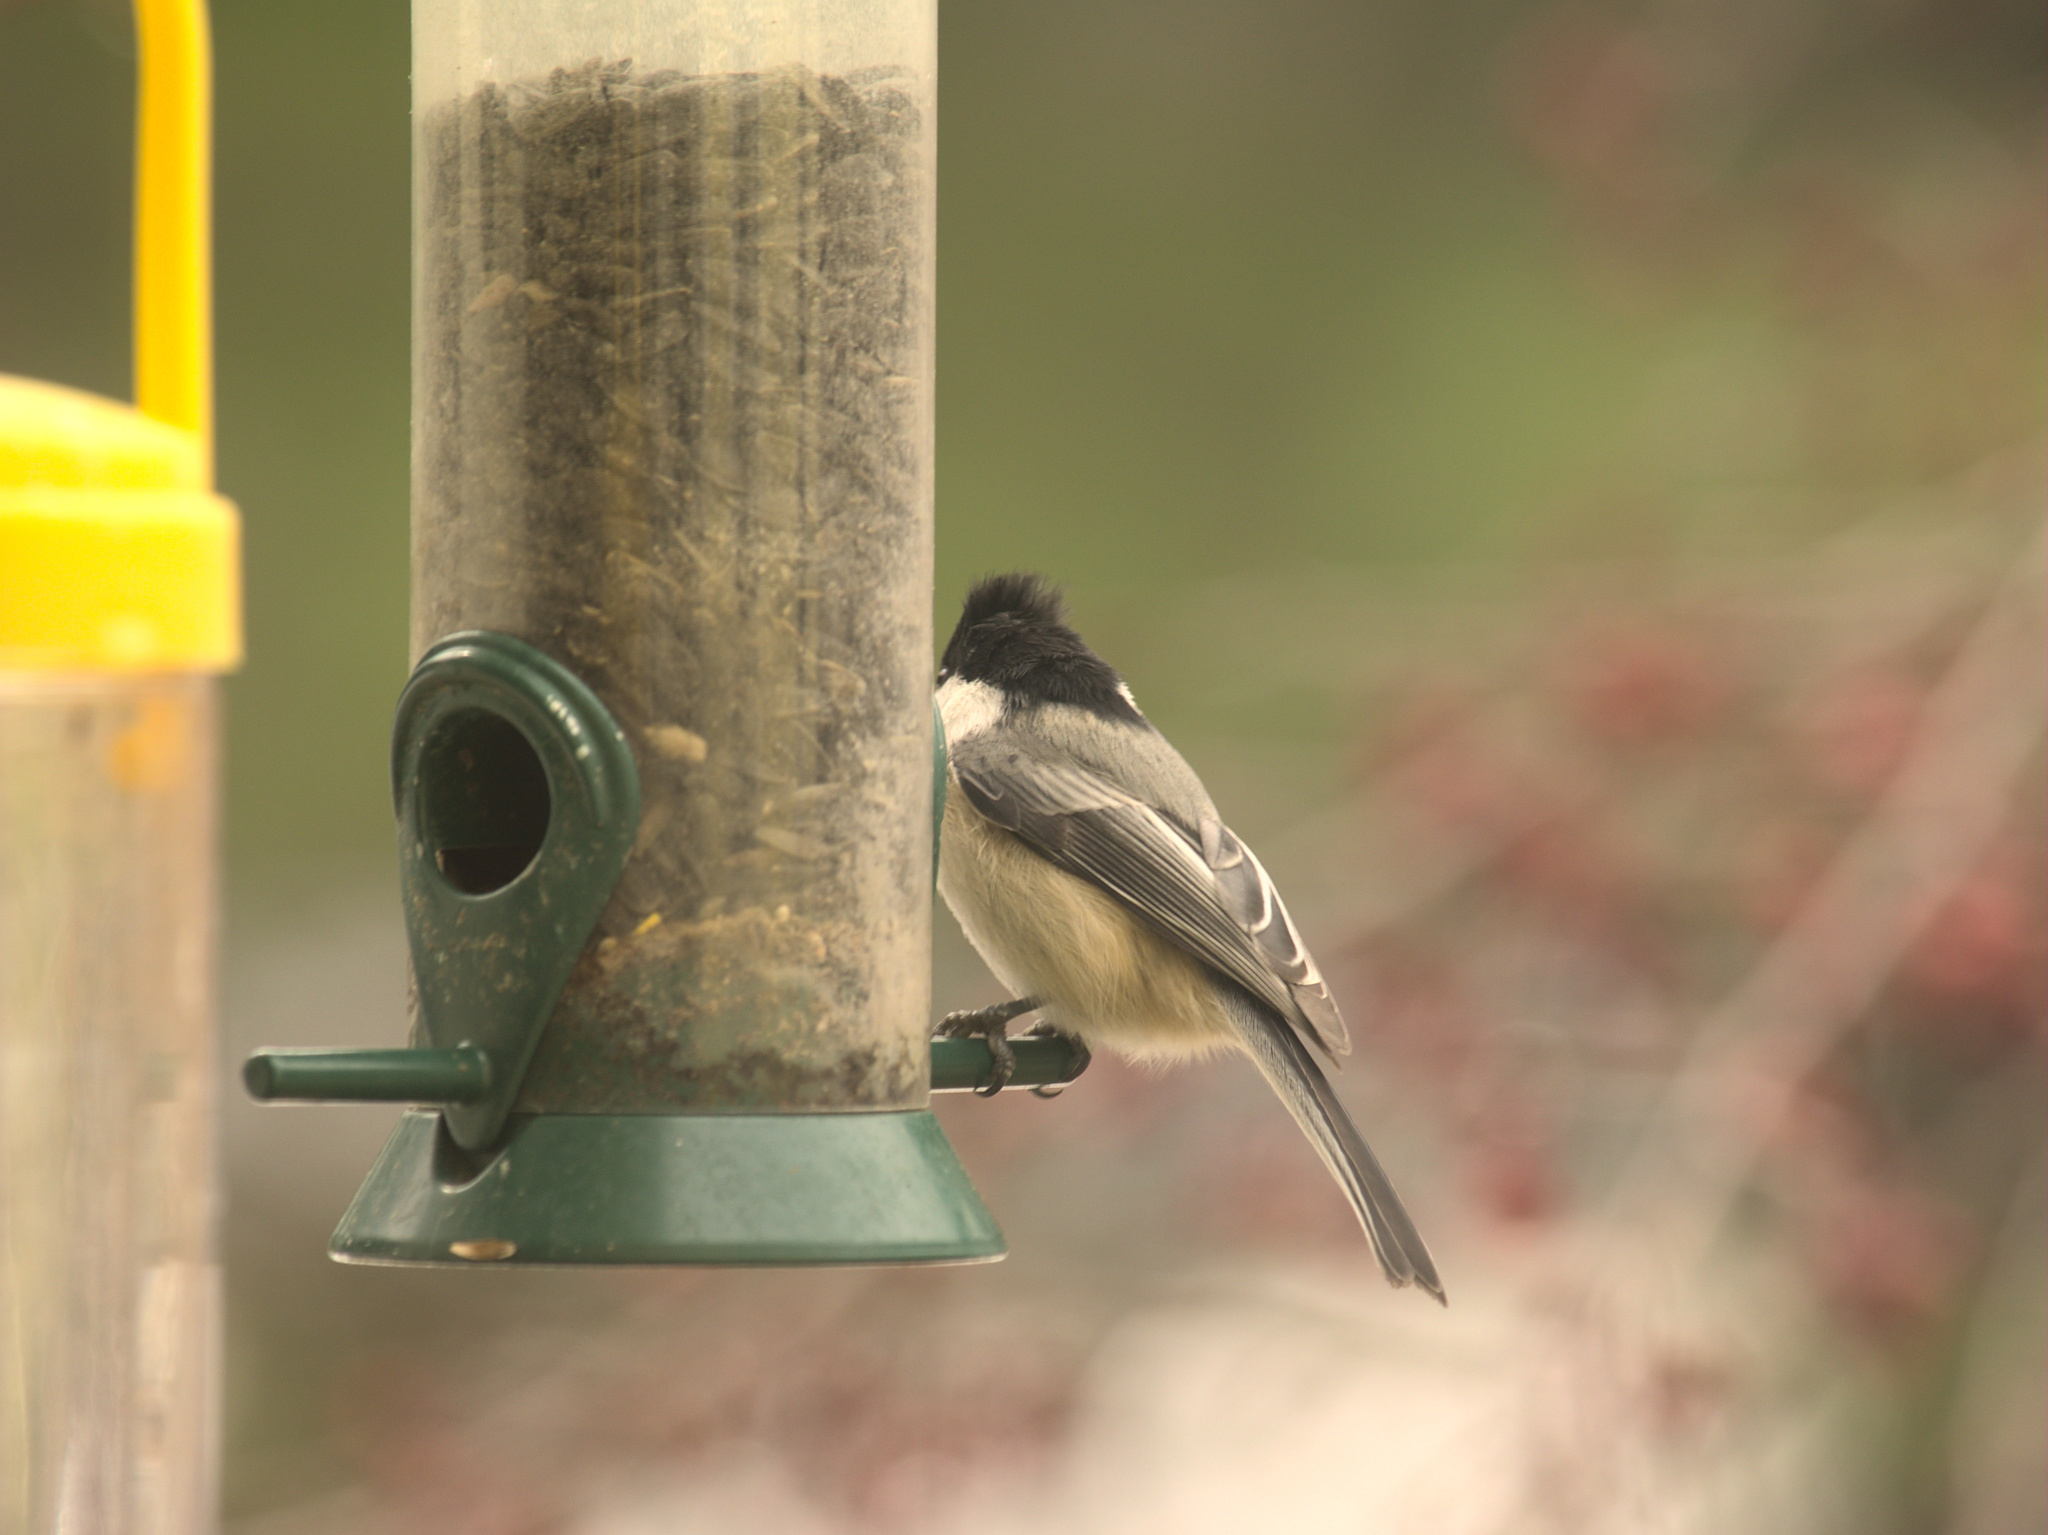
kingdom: Animalia
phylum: Chordata
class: Aves
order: Passeriformes
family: Paridae
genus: Poecile
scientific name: Poecile atricapillus
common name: Black-capped chickadee
